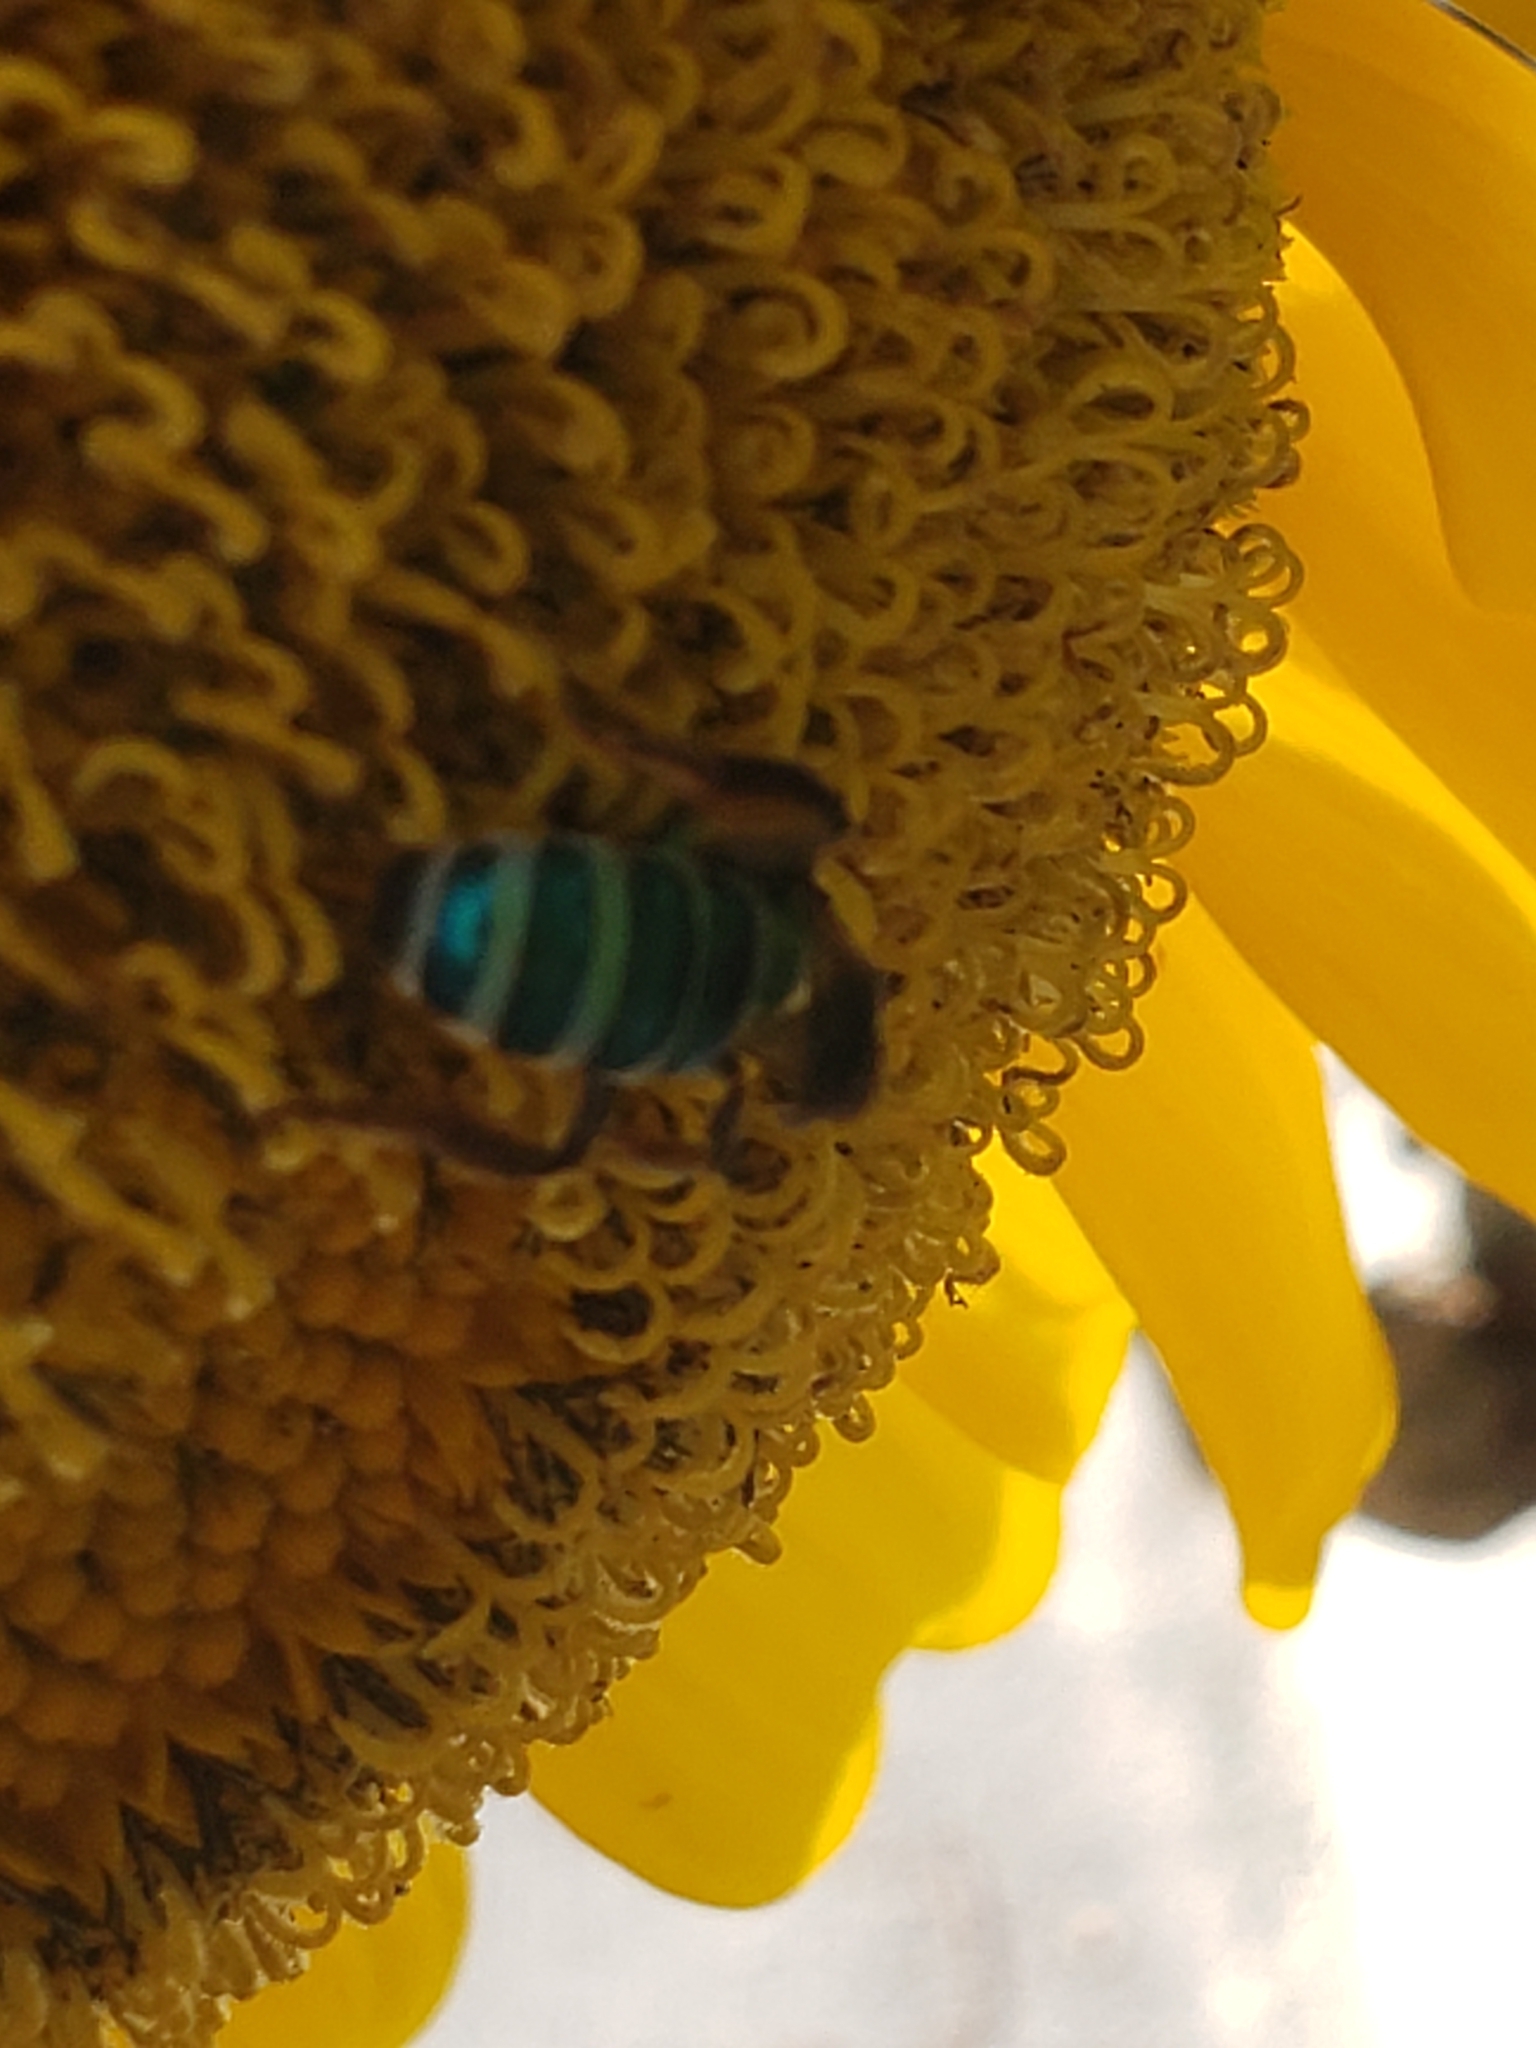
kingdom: Animalia
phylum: Arthropoda
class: Insecta
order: Hymenoptera
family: Halictidae
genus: Agapostemon
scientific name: Agapostemon splendens
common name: Brown-winged striped sweat bee
